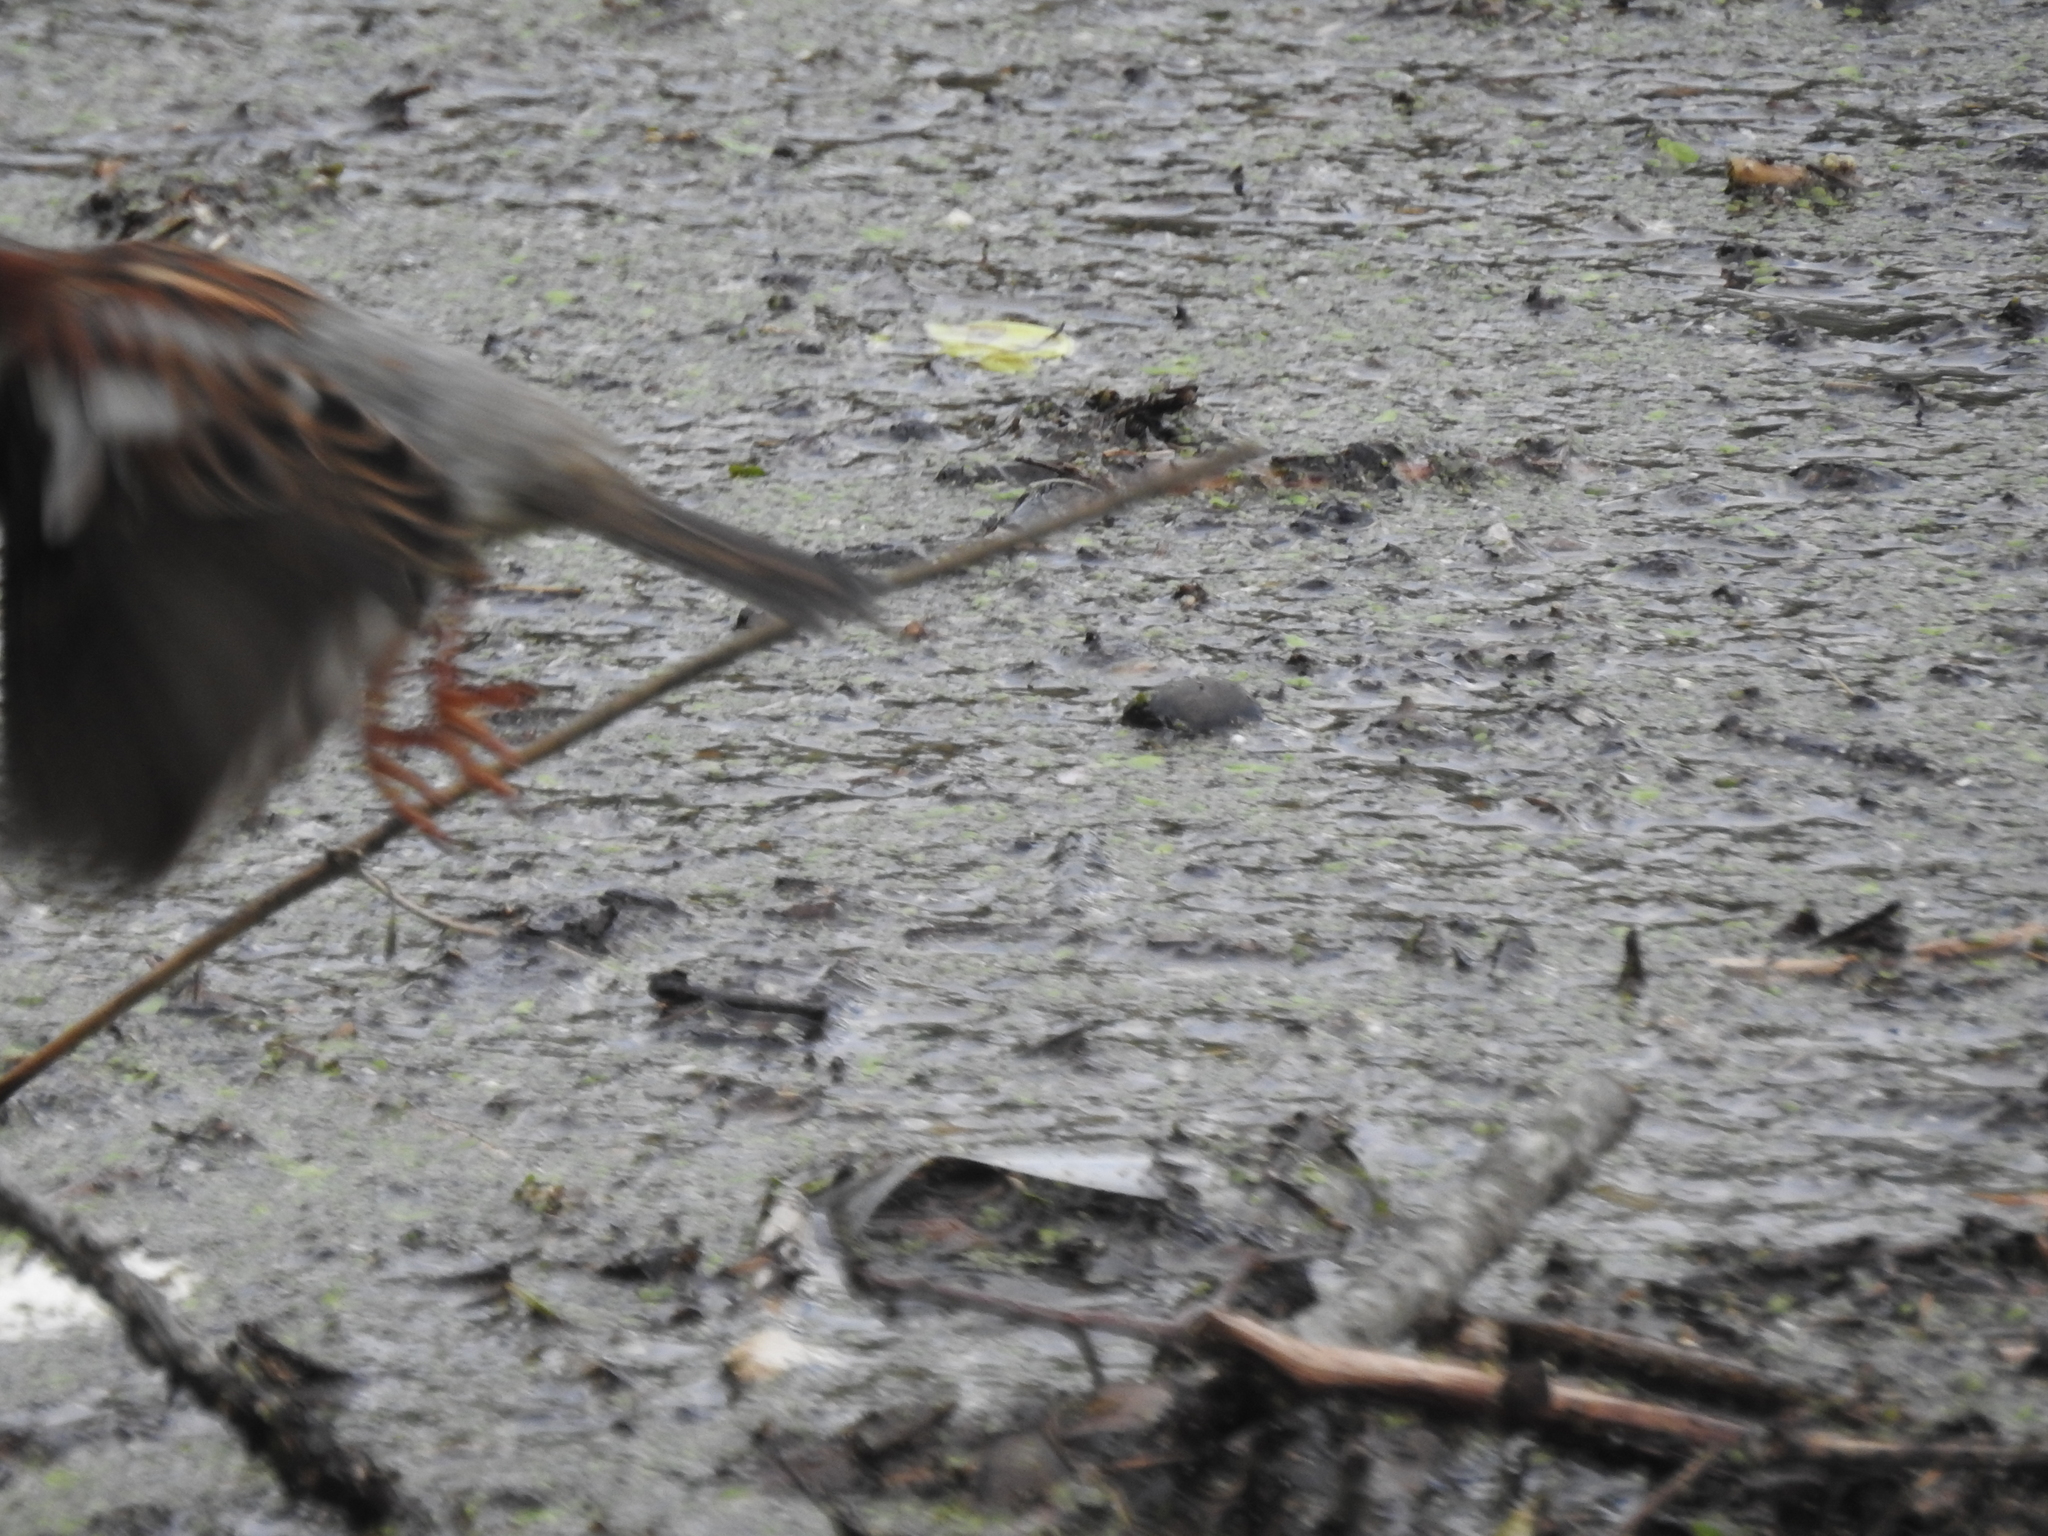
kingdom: Animalia
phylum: Chordata
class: Aves
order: Passeriformes
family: Passeridae
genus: Passer
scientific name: Passer domesticus
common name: House sparrow
